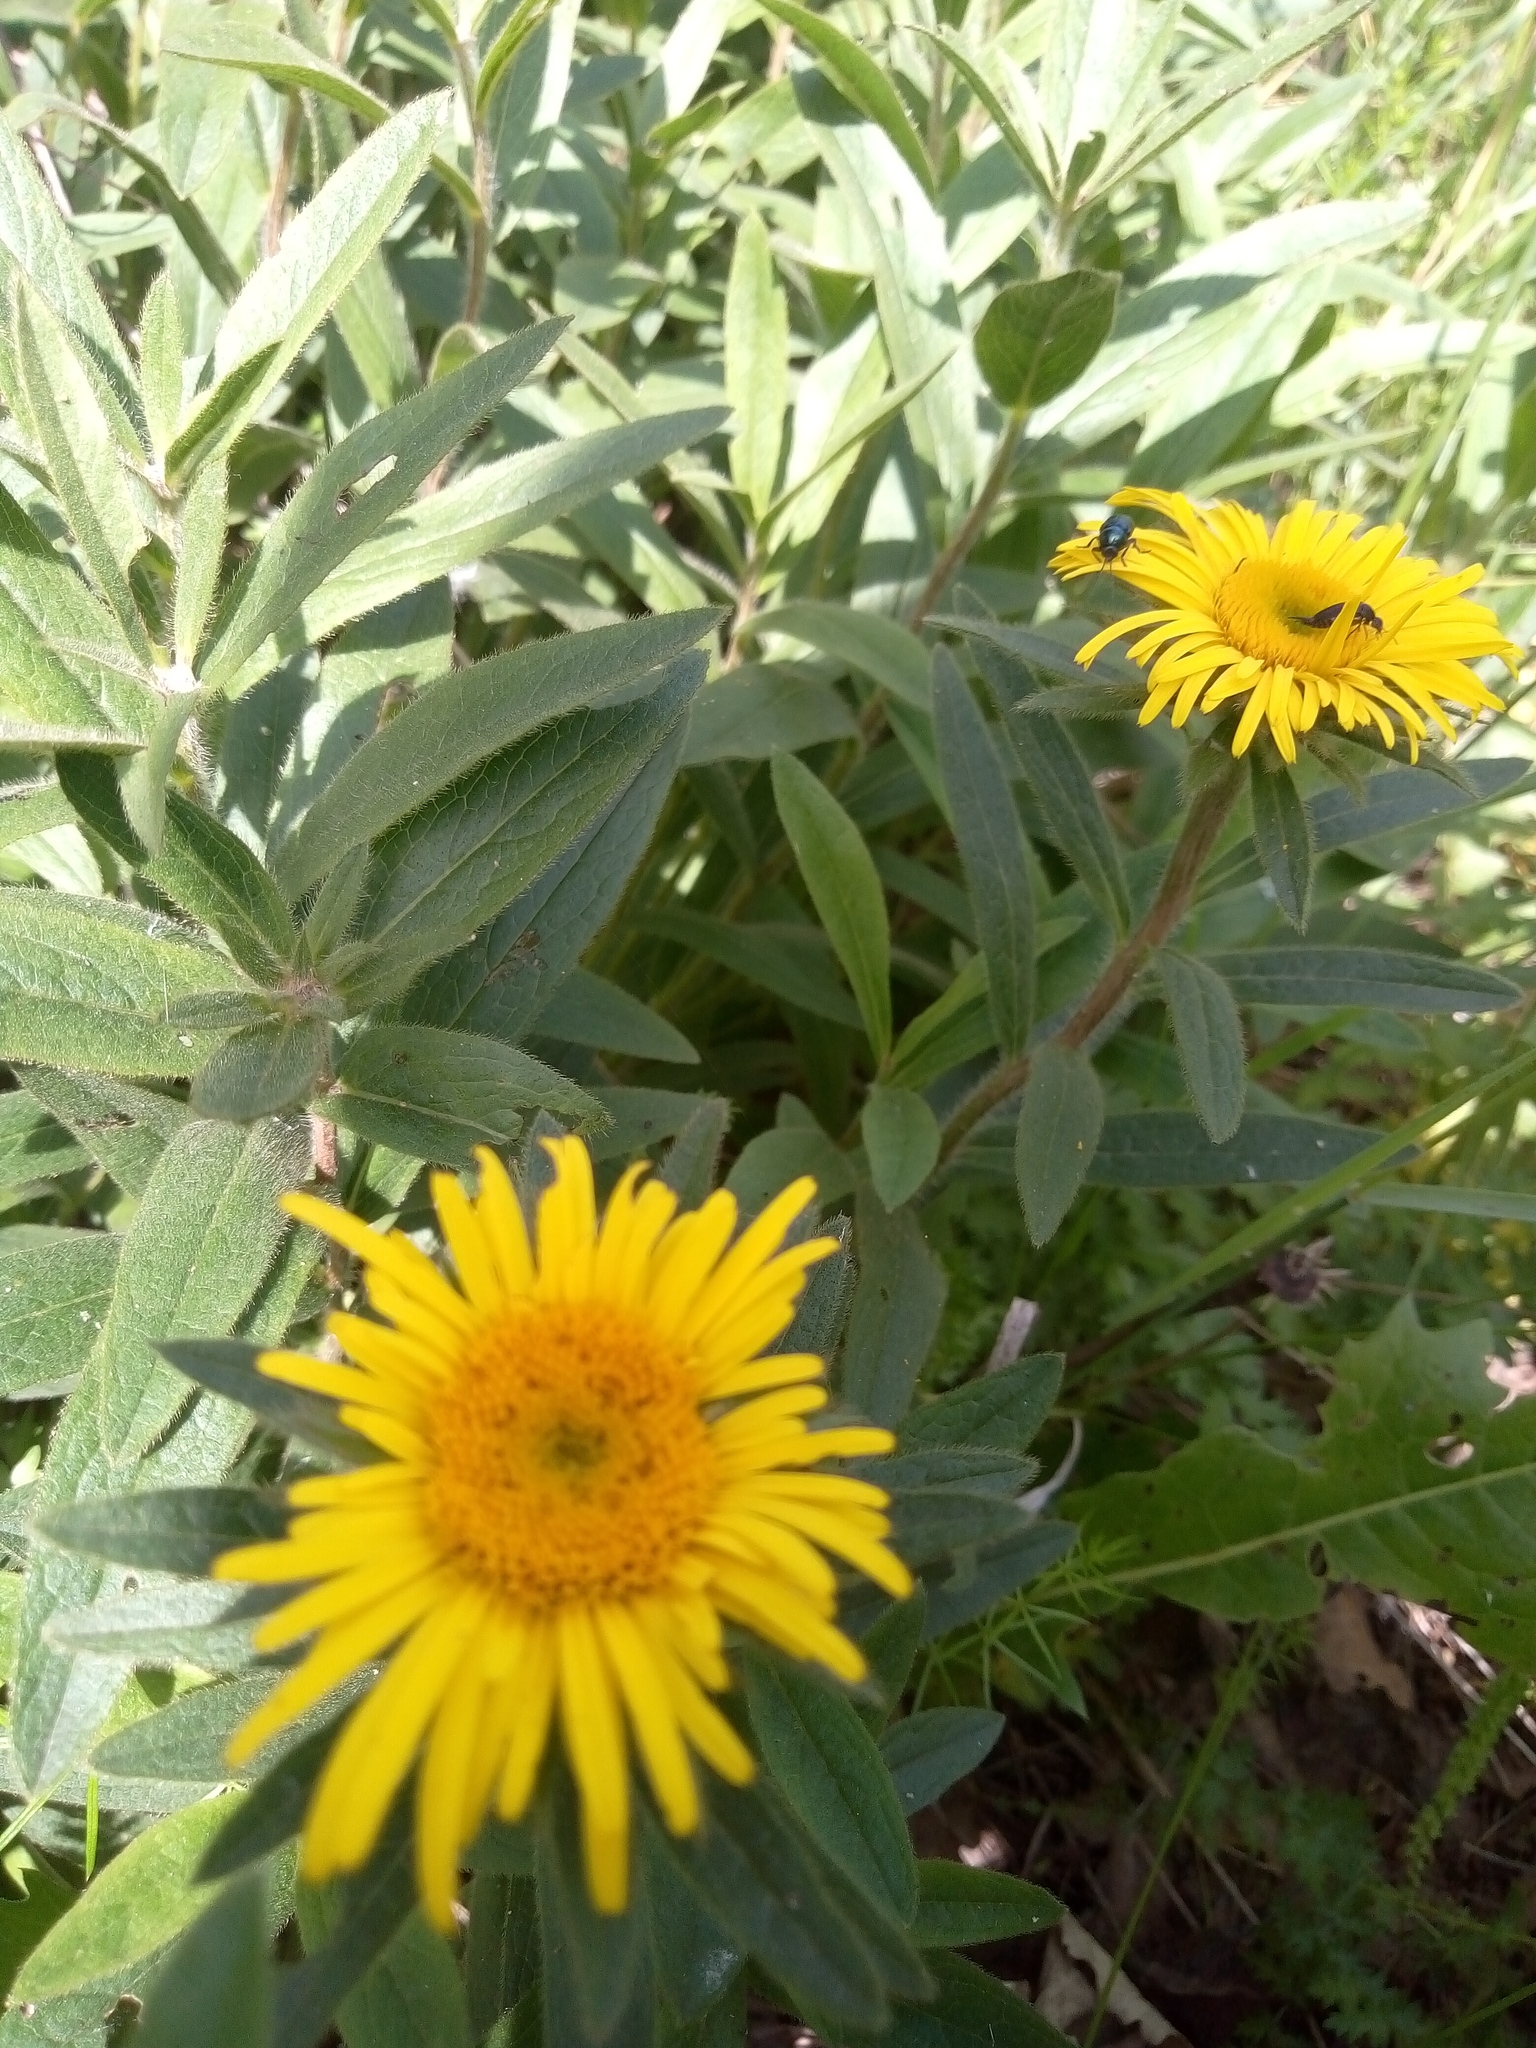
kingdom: Plantae
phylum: Tracheophyta
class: Magnoliopsida
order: Asterales
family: Asteraceae
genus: Pentanema
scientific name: Pentanema hirtum
